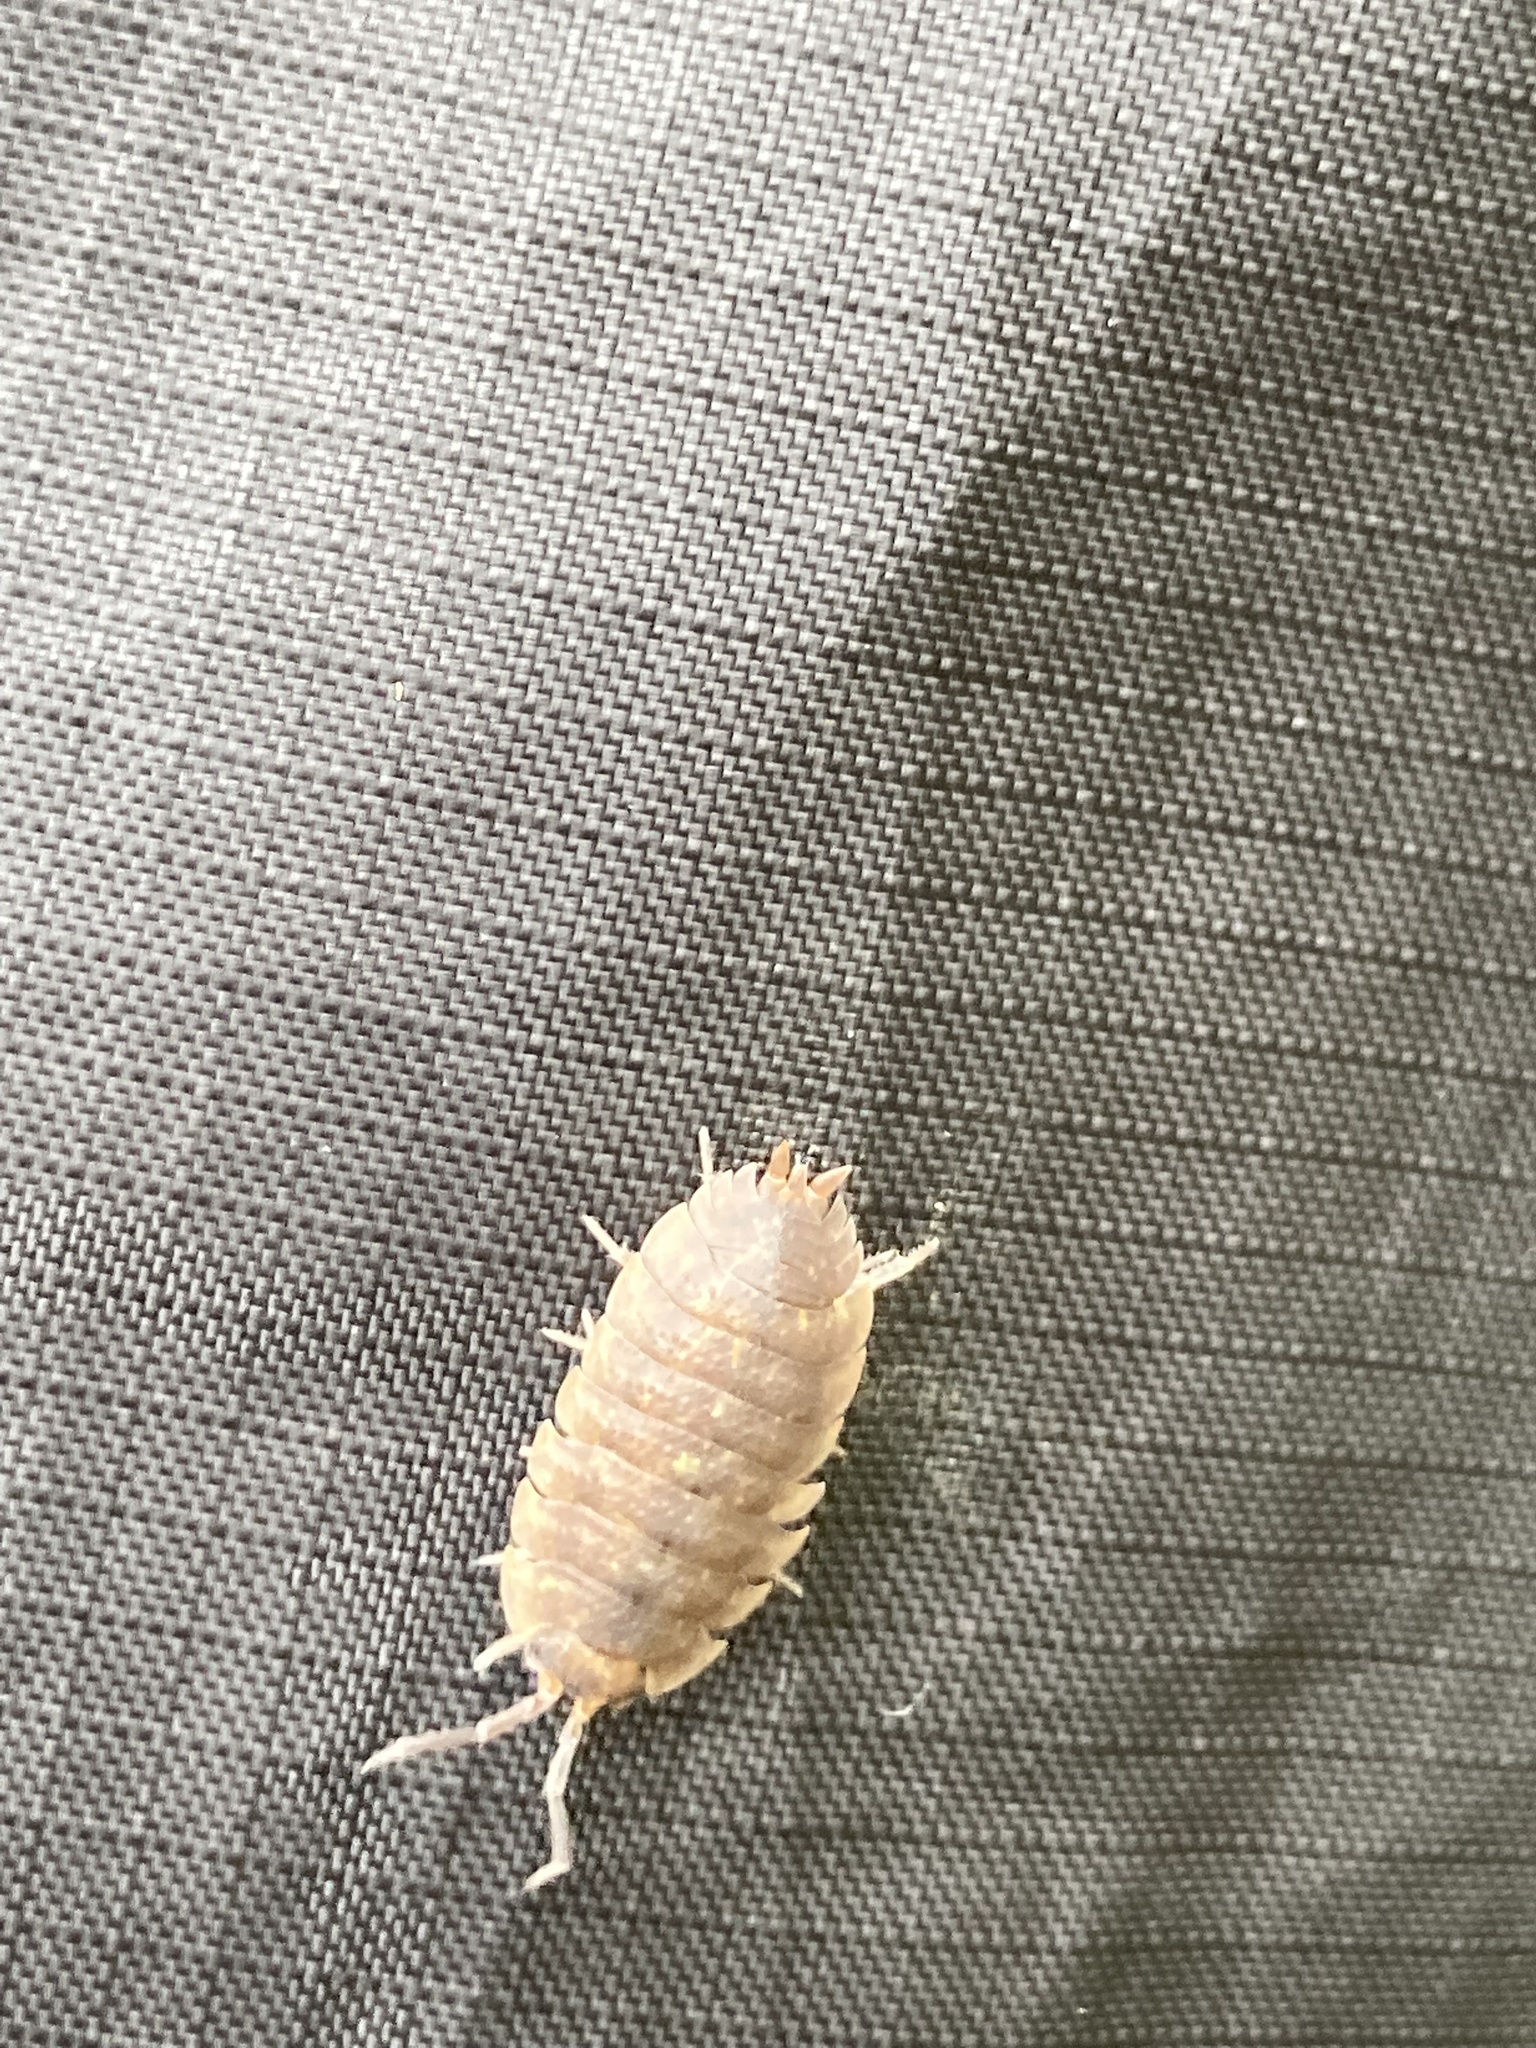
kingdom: Animalia
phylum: Arthropoda
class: Malacostraca
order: Isopoda
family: Porcellionidae
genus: Porcellio
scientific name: Porcellio scaber
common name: Common rough woodlouse
